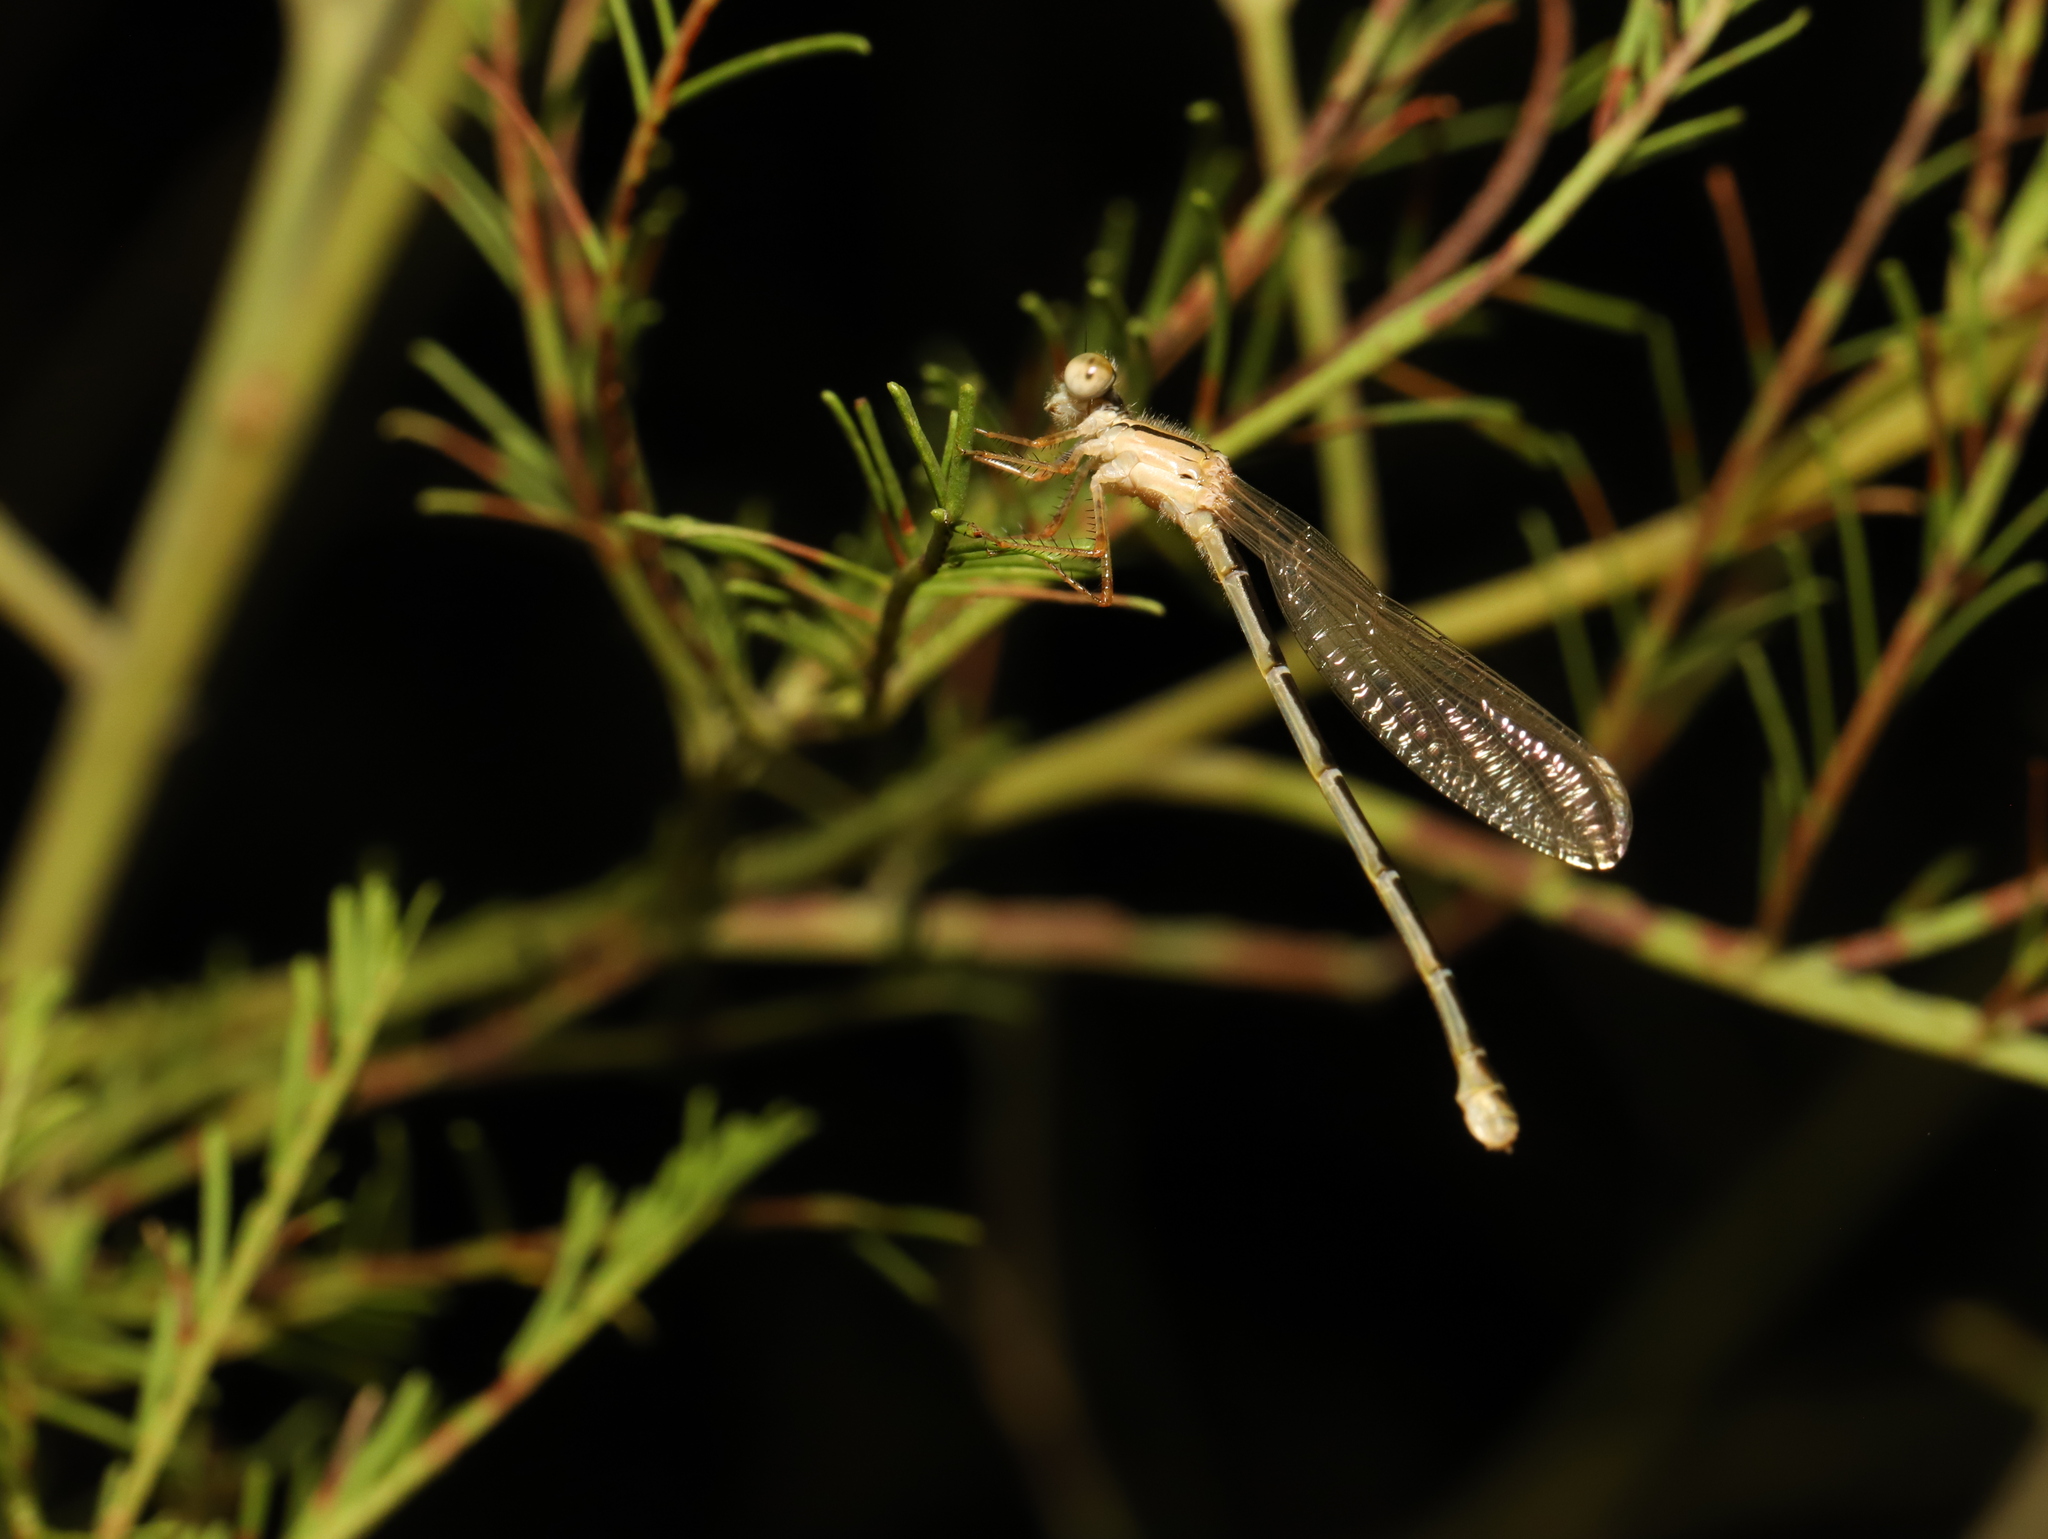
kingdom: Animalia
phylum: Arthropoda
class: Insecta
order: Odonata
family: Coenagrionidae
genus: Xanthagrion
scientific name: Xanthagrion erythroneurum
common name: Red and blue damsel
